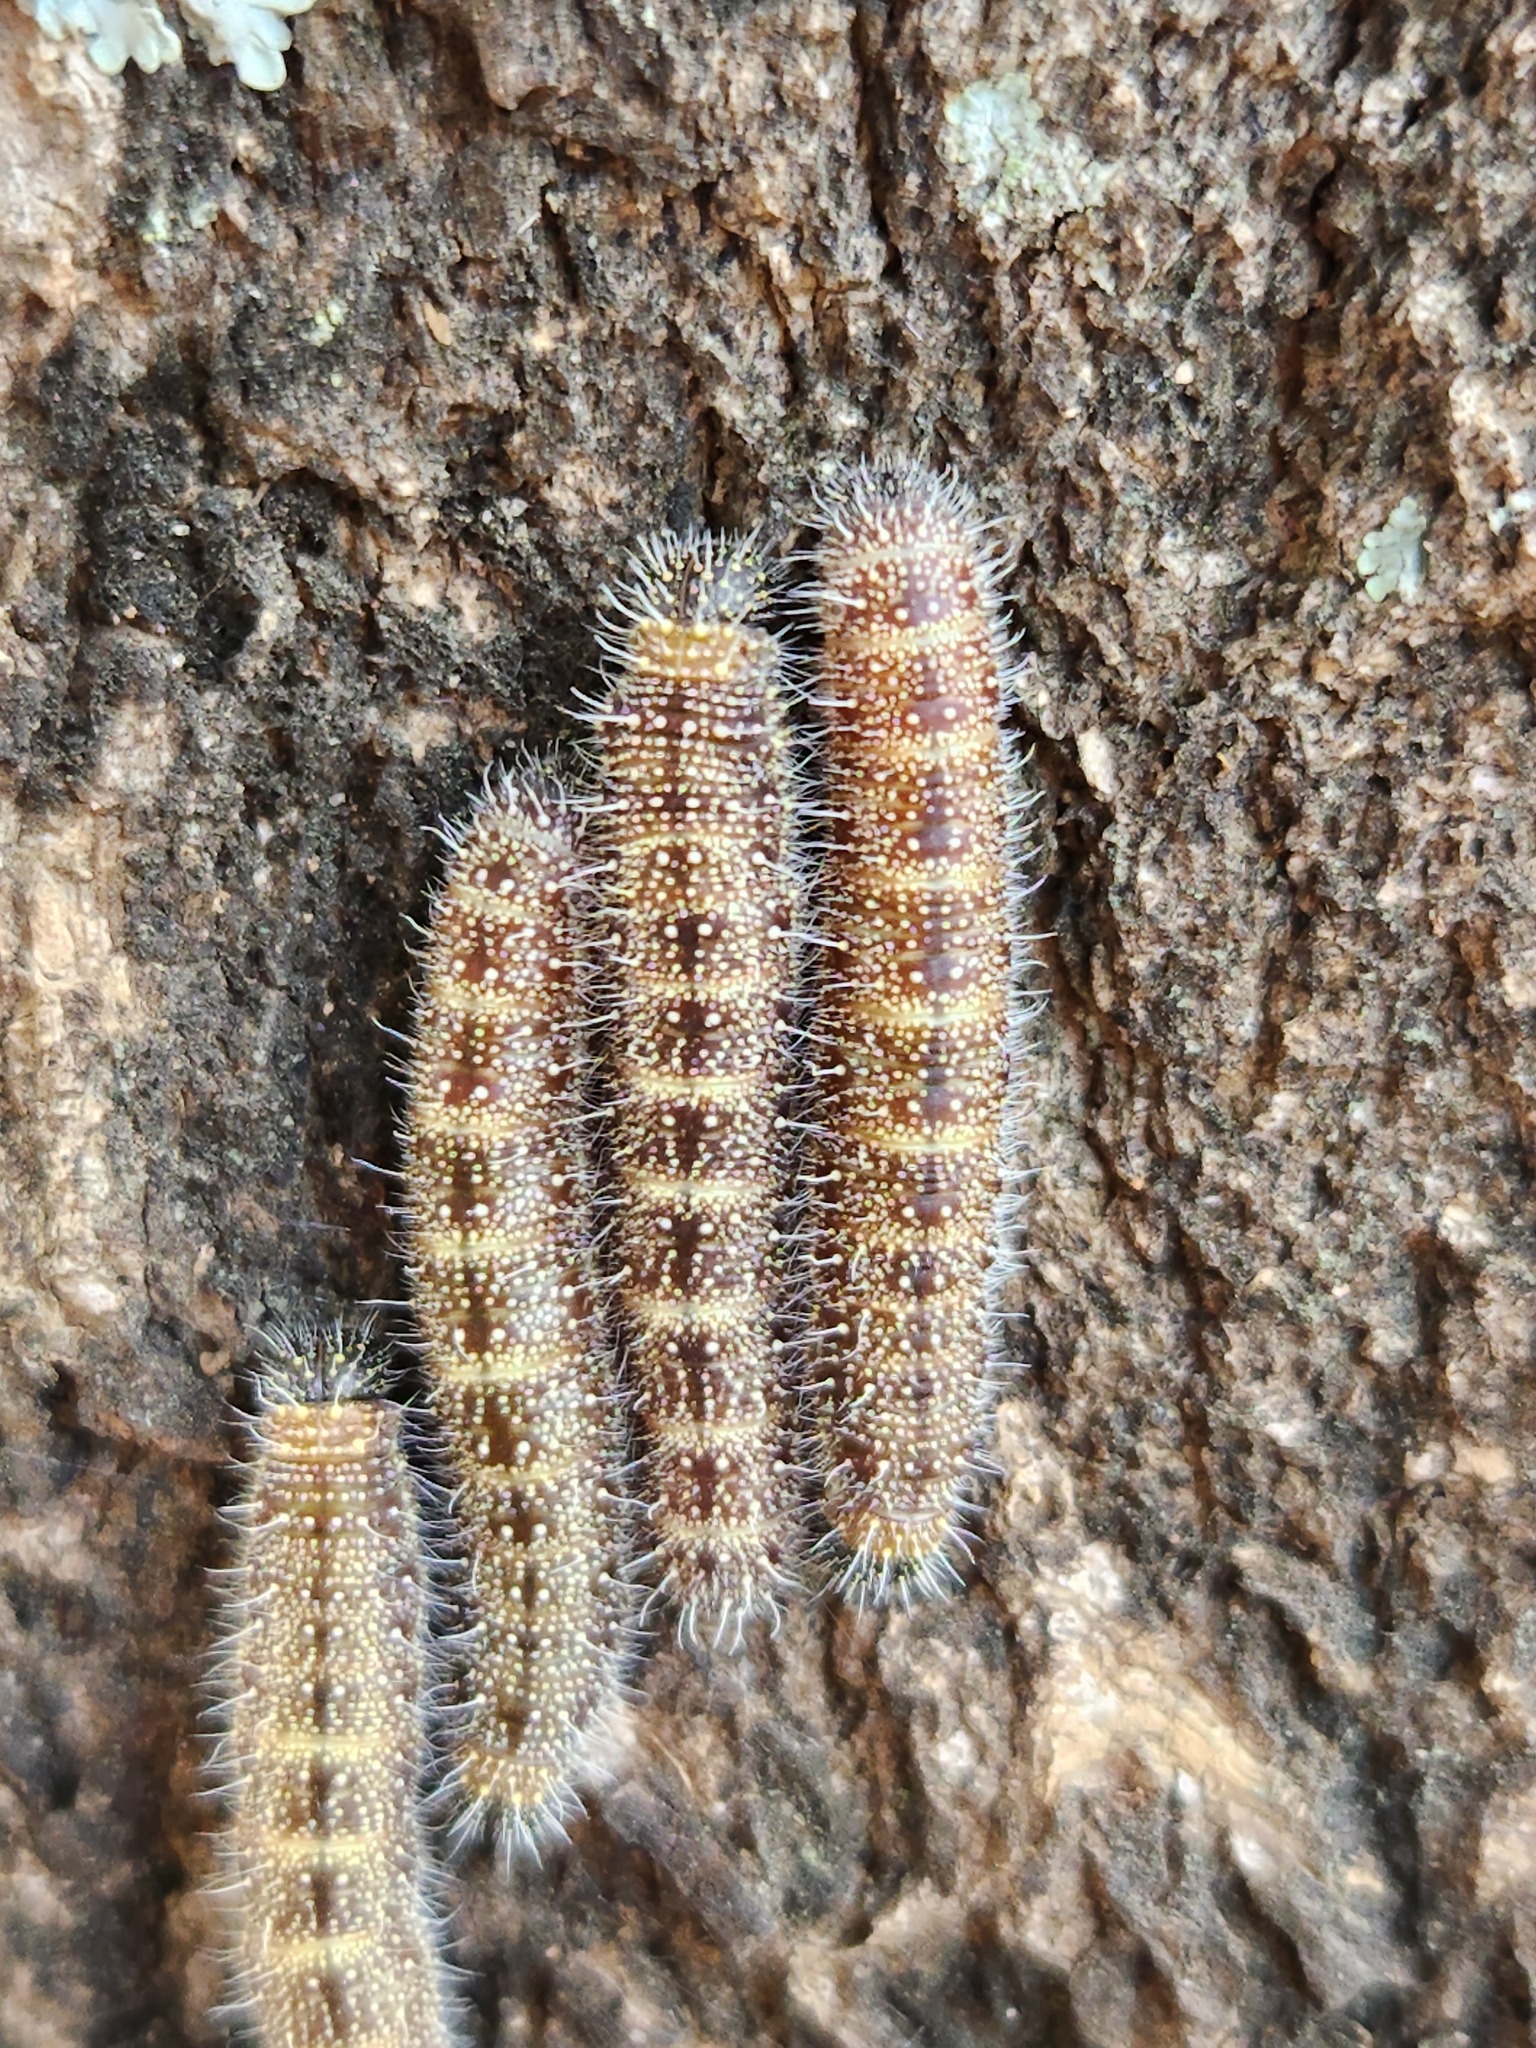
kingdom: Animalia
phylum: Arthropoda
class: Insecta
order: Lepidoptera
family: Pieridae
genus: Melete
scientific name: Melete lycimnia
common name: Common melwhite
